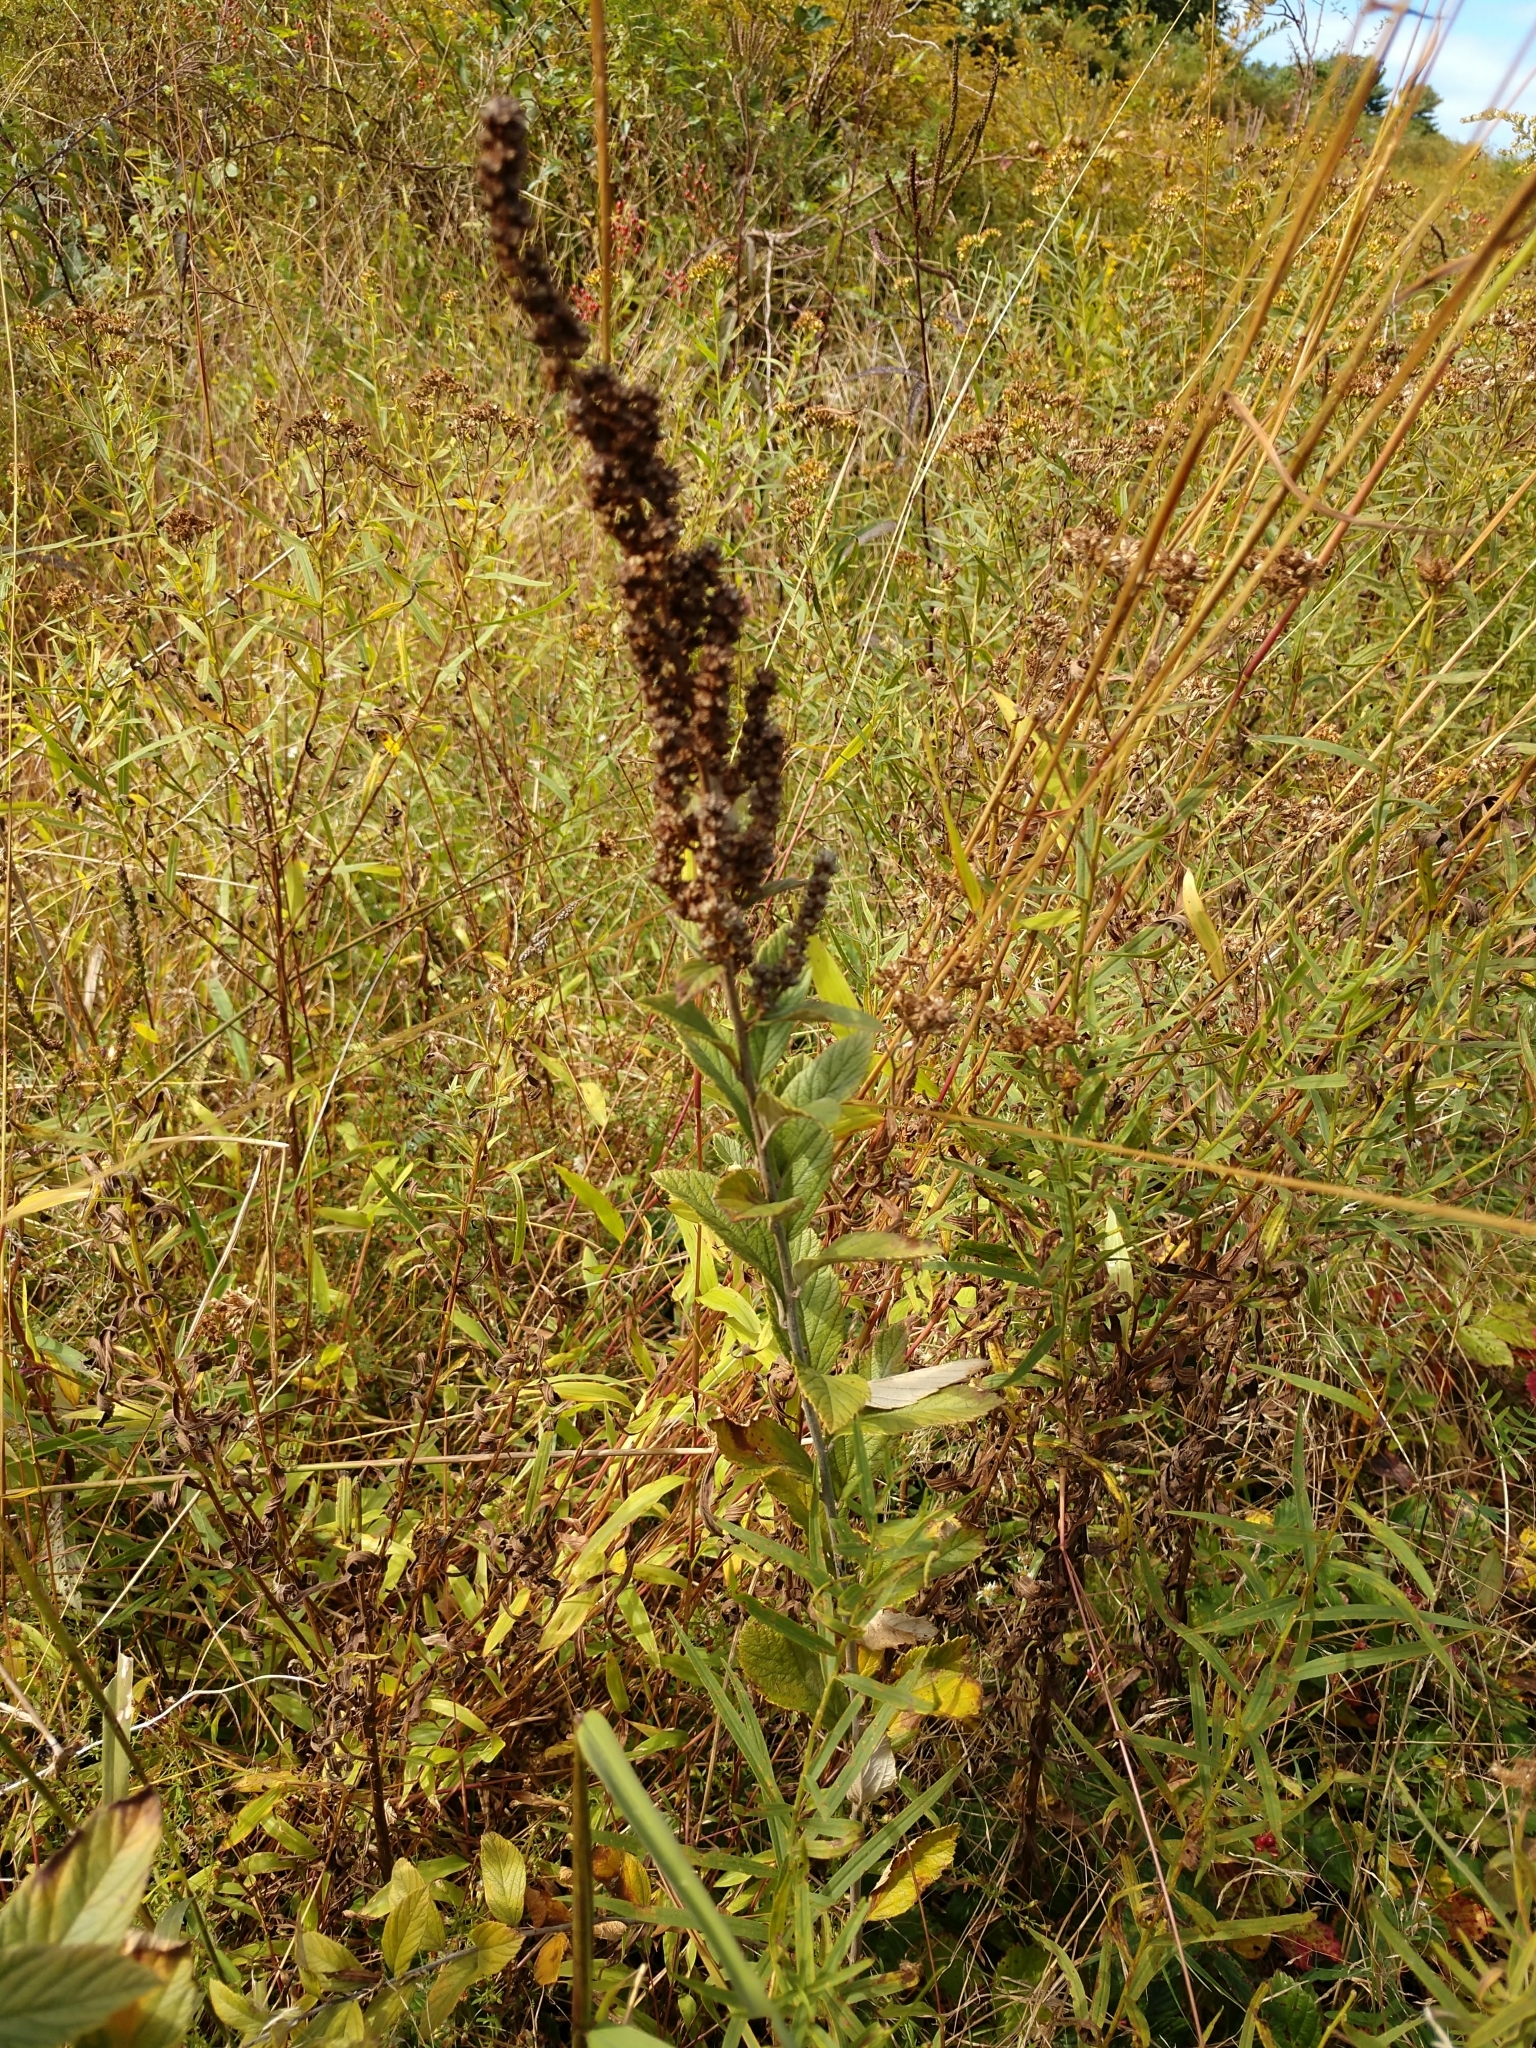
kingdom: Plantae
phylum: Tracheophyta
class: Magnoliopsida
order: Rosales
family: Rosaceae
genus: Spiraea
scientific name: Spiraea tomentosa
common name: Hardhack
